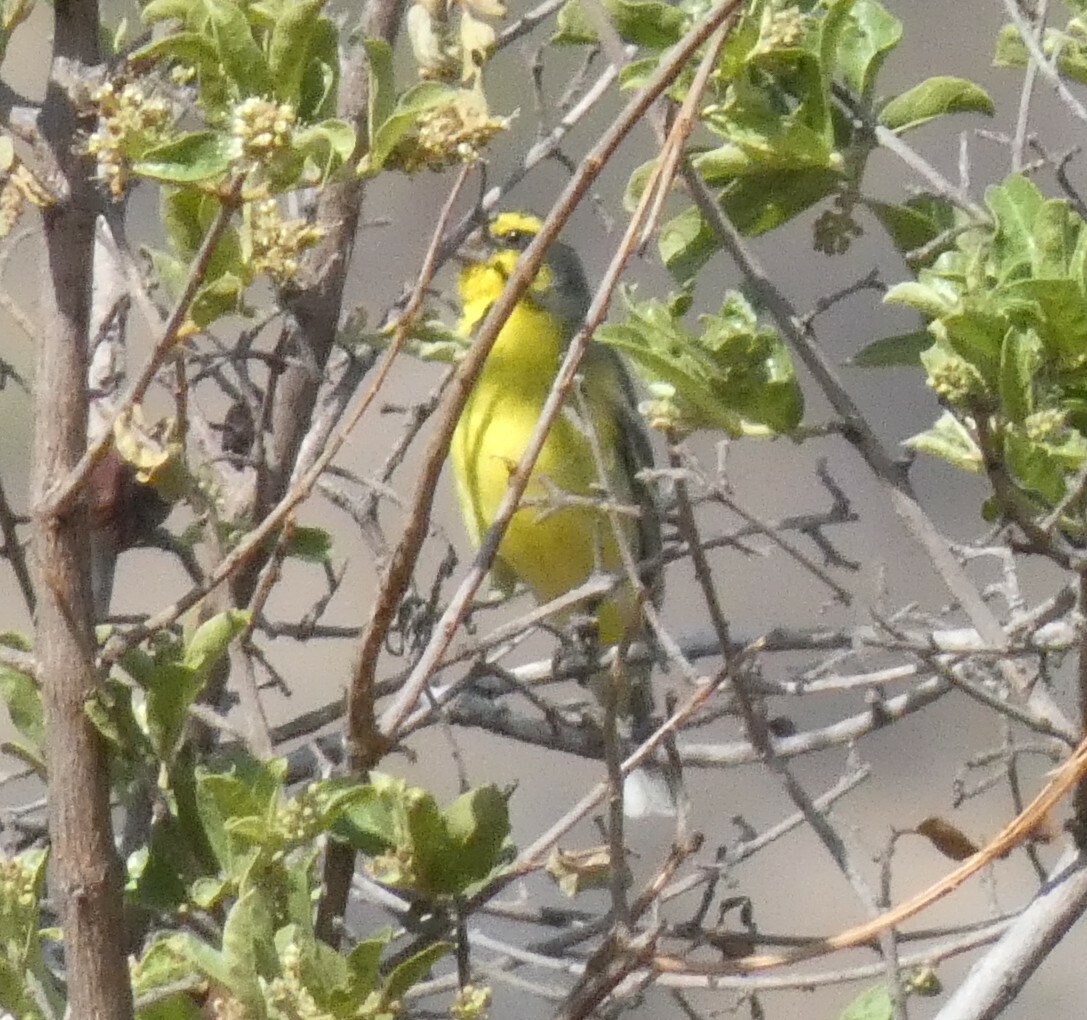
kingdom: Animalia
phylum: Chordata
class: Aves
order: Passeriformes
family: Fringillidae
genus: Crithagra
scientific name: Crithagra mozambica
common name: Yellow-fronted canary
